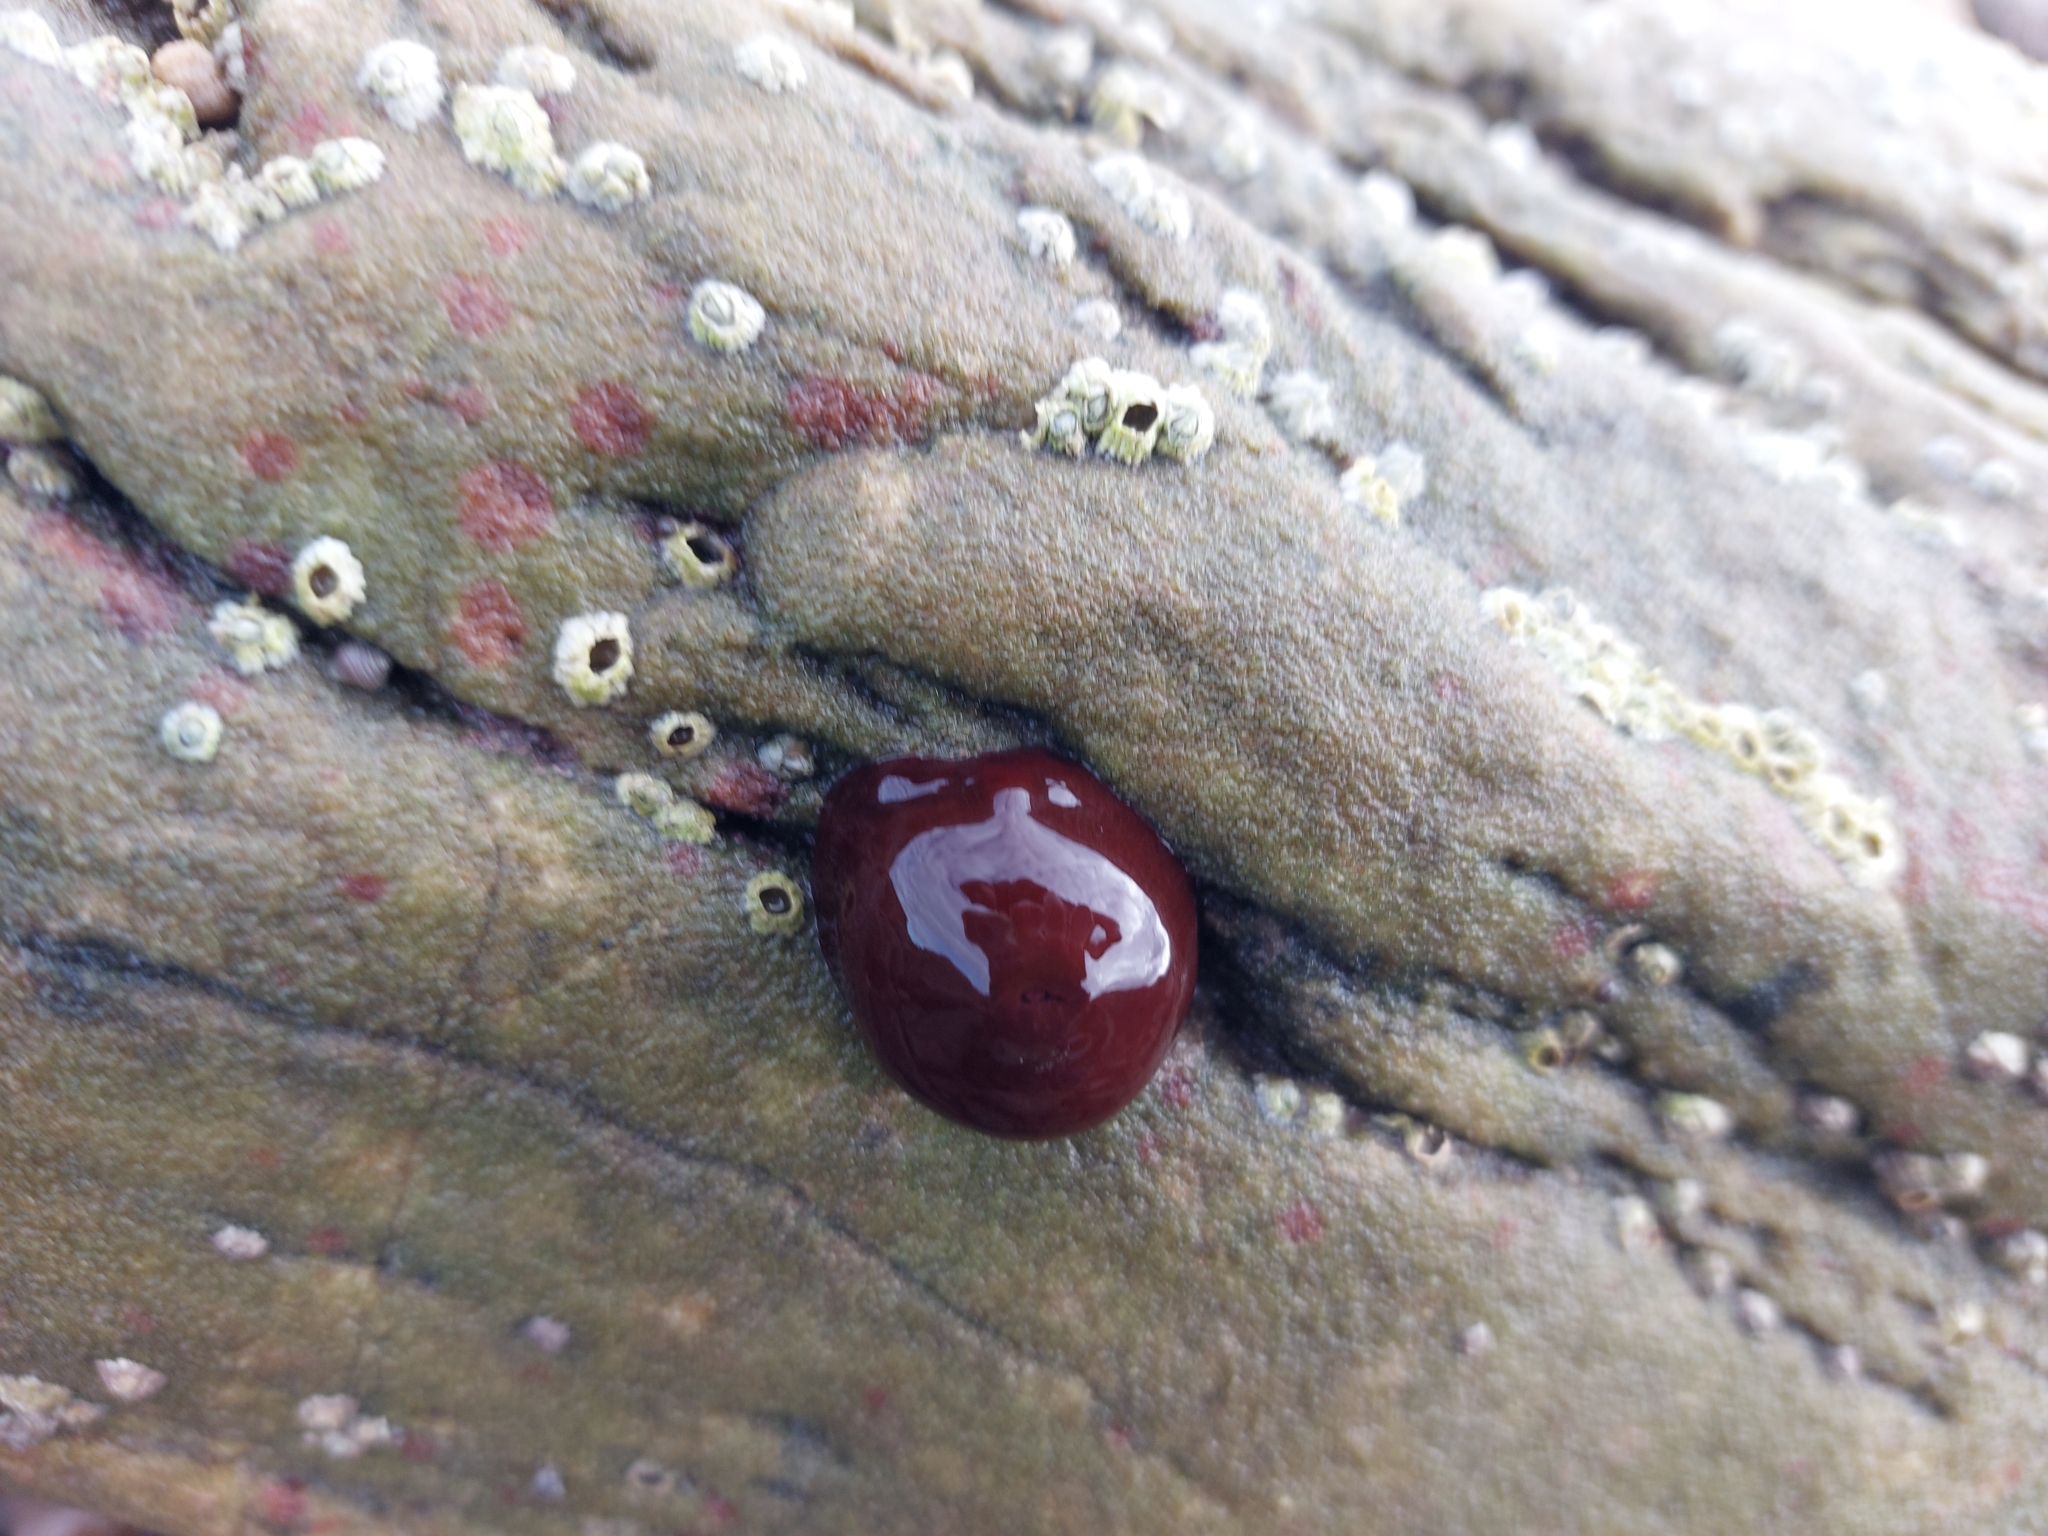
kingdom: Animalia
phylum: Cnidaria
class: Anthozoa
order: Actiniaria
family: Actiniidae
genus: Actinia
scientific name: Actinia equina
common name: Beadlet anemone
